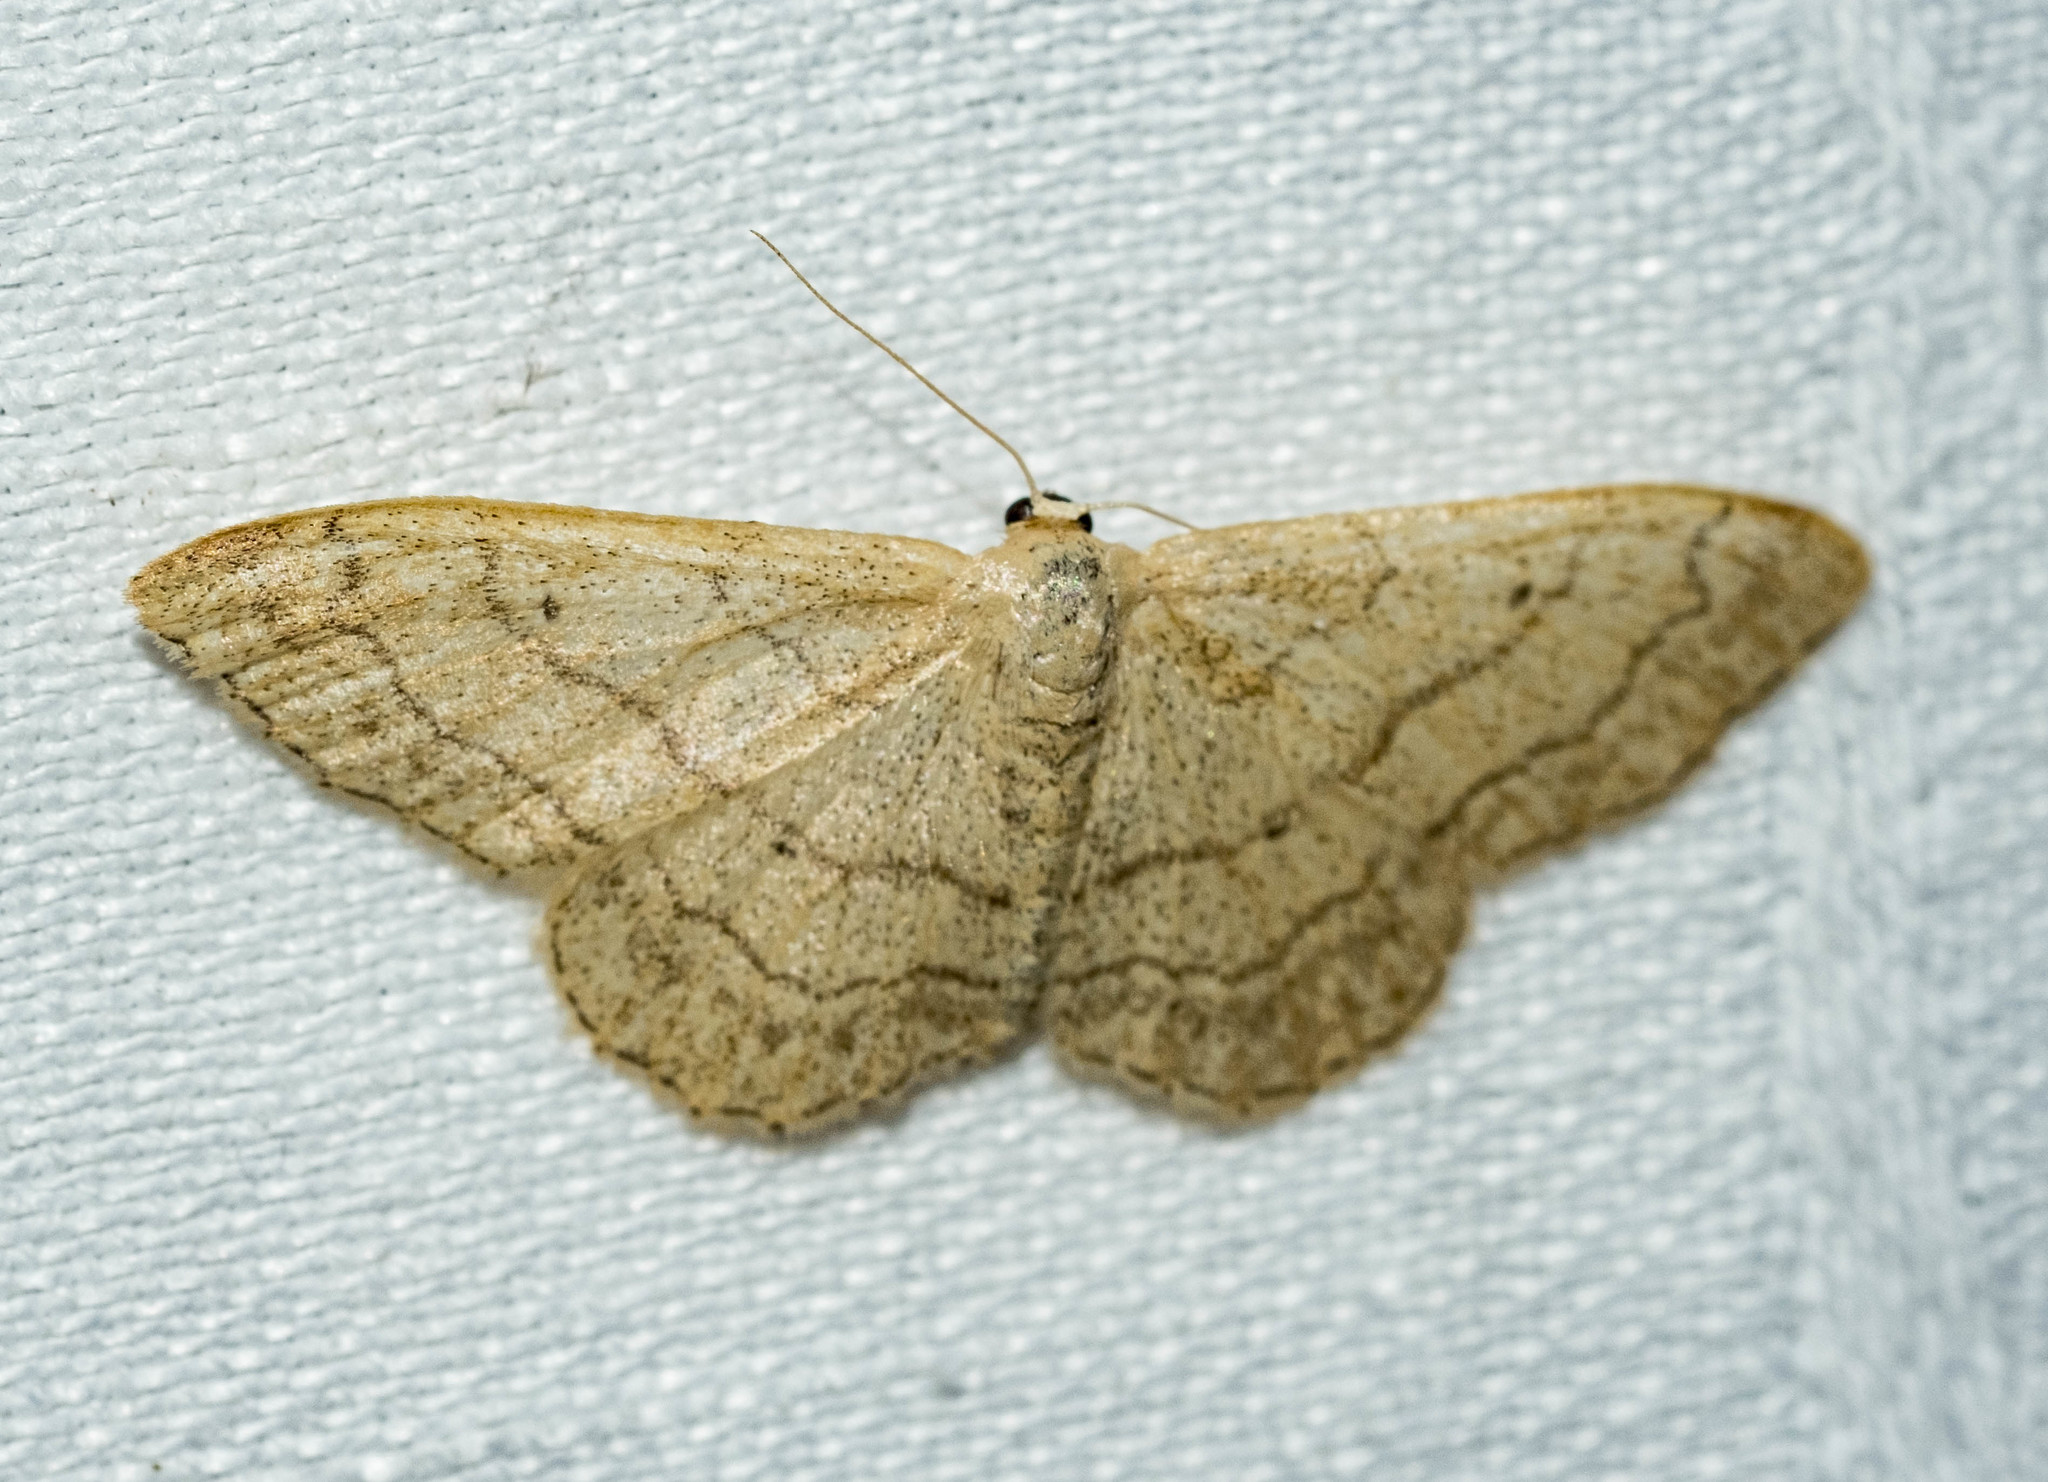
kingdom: Animalia
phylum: Arthropoda
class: Insecta
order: Lepidoptera
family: Geometridae
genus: Idaea
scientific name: Idaea aversata
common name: Riband wave
